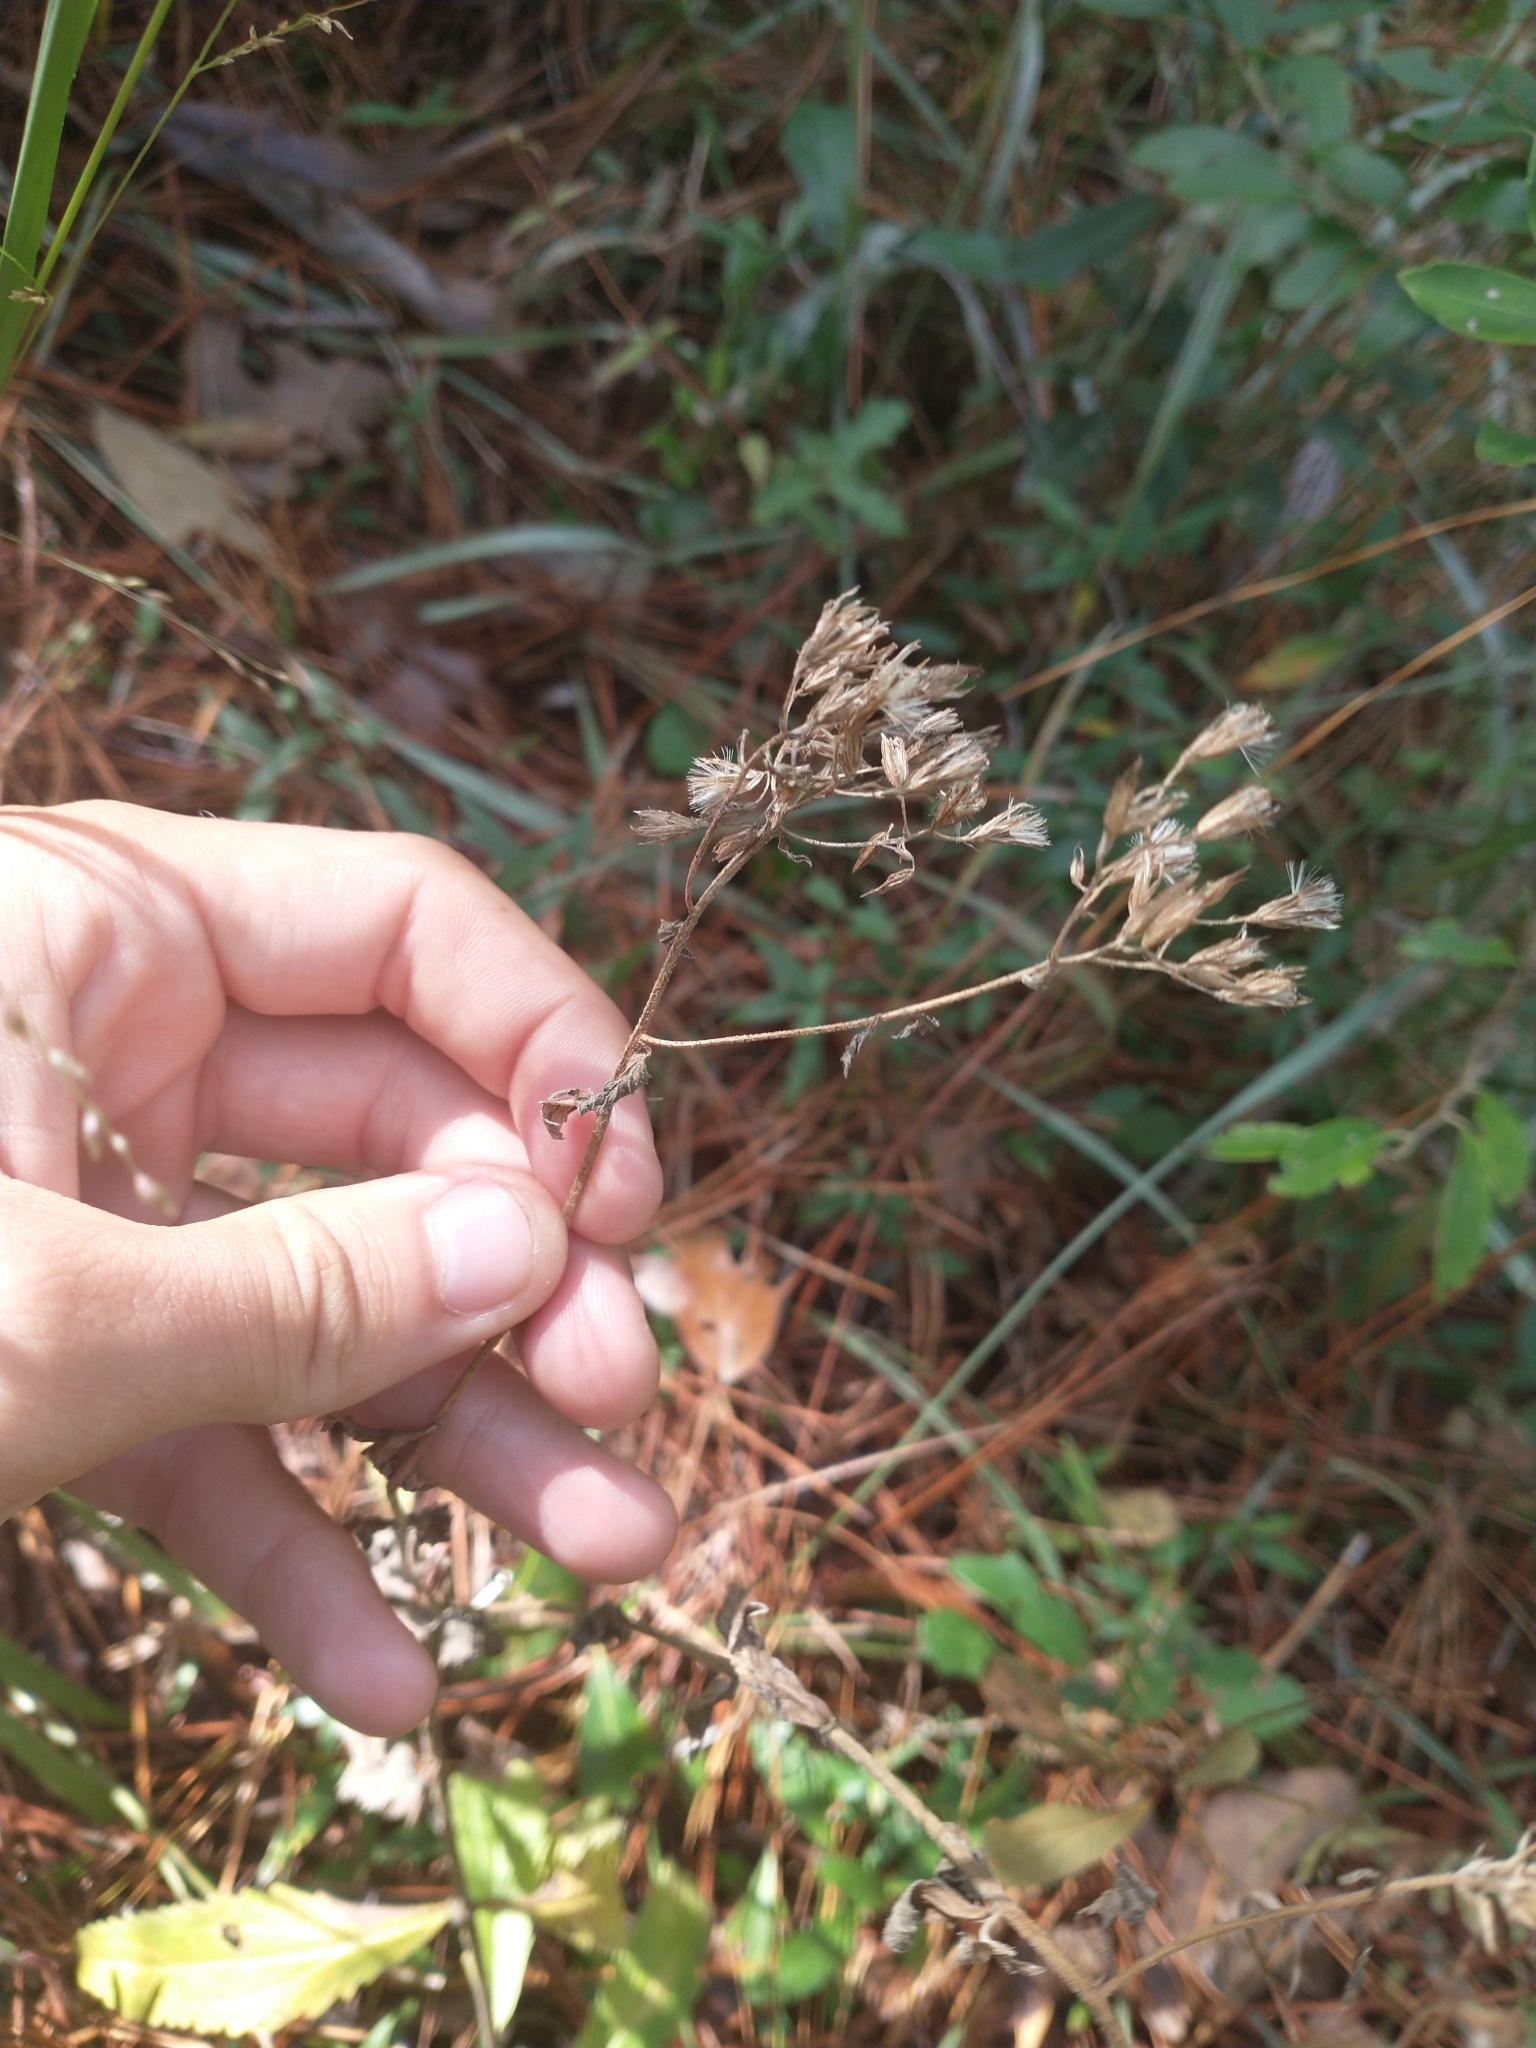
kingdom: Plantae
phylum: Tracheophyta
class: Magnoliopsida
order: Asterales
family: Asteraceae
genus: Eupatorium
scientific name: Eupatorium album
